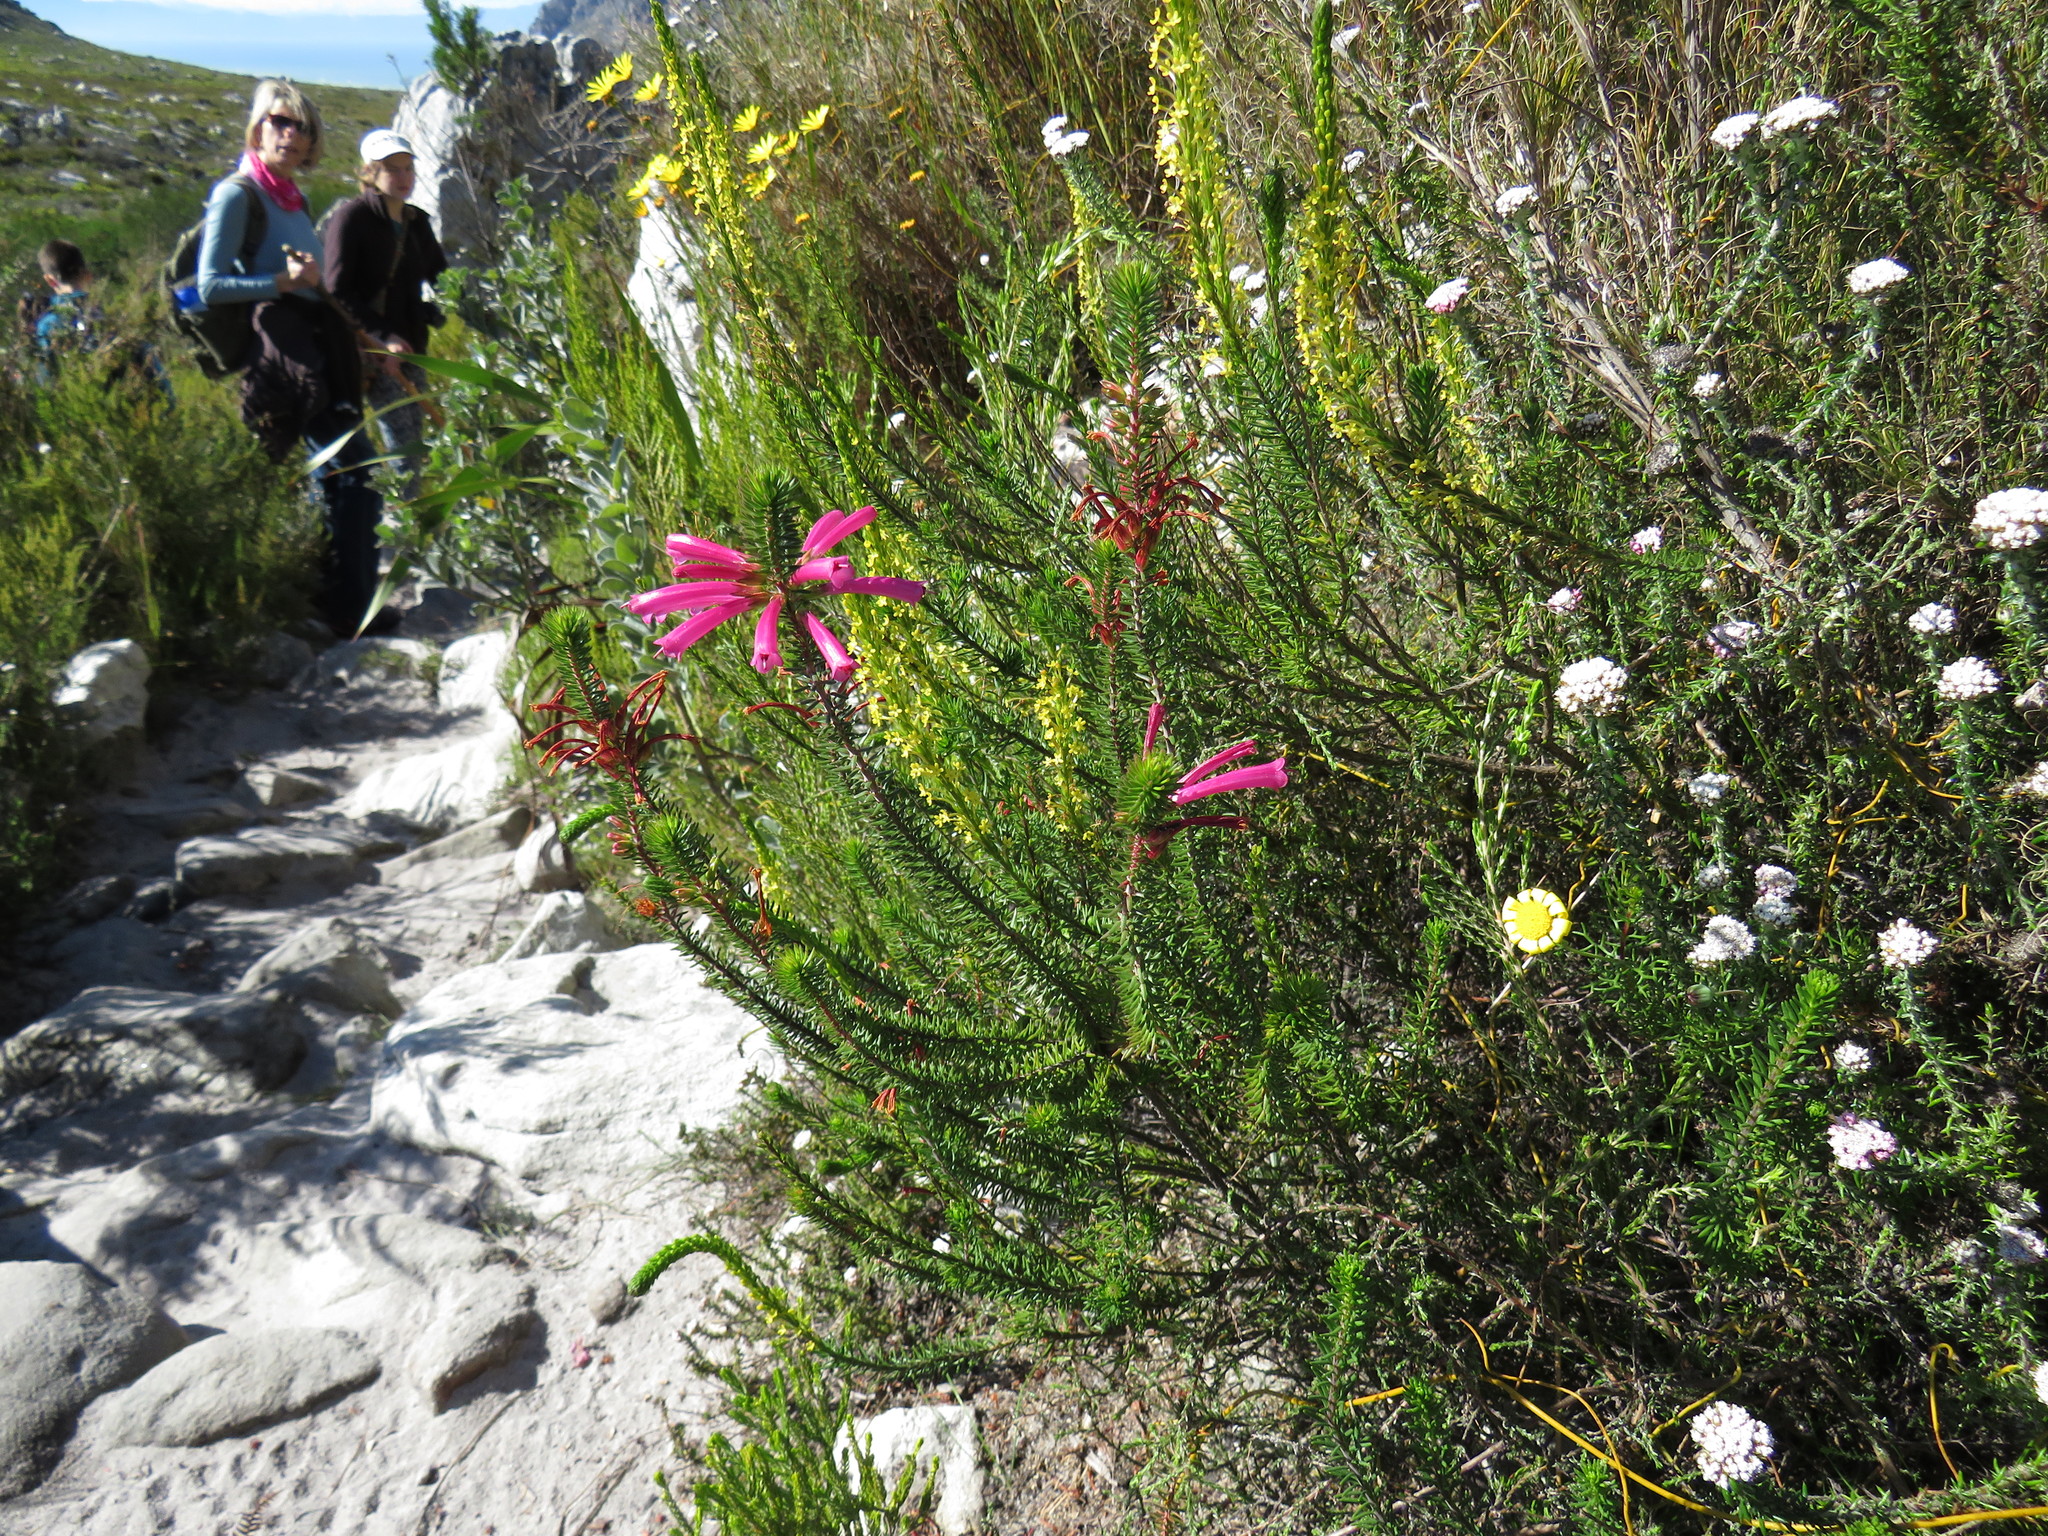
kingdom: Plantae
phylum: Tracheophyta
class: Magnoliopsida
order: Ericales
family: Ericaceae
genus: Erica
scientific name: Erica abietina
